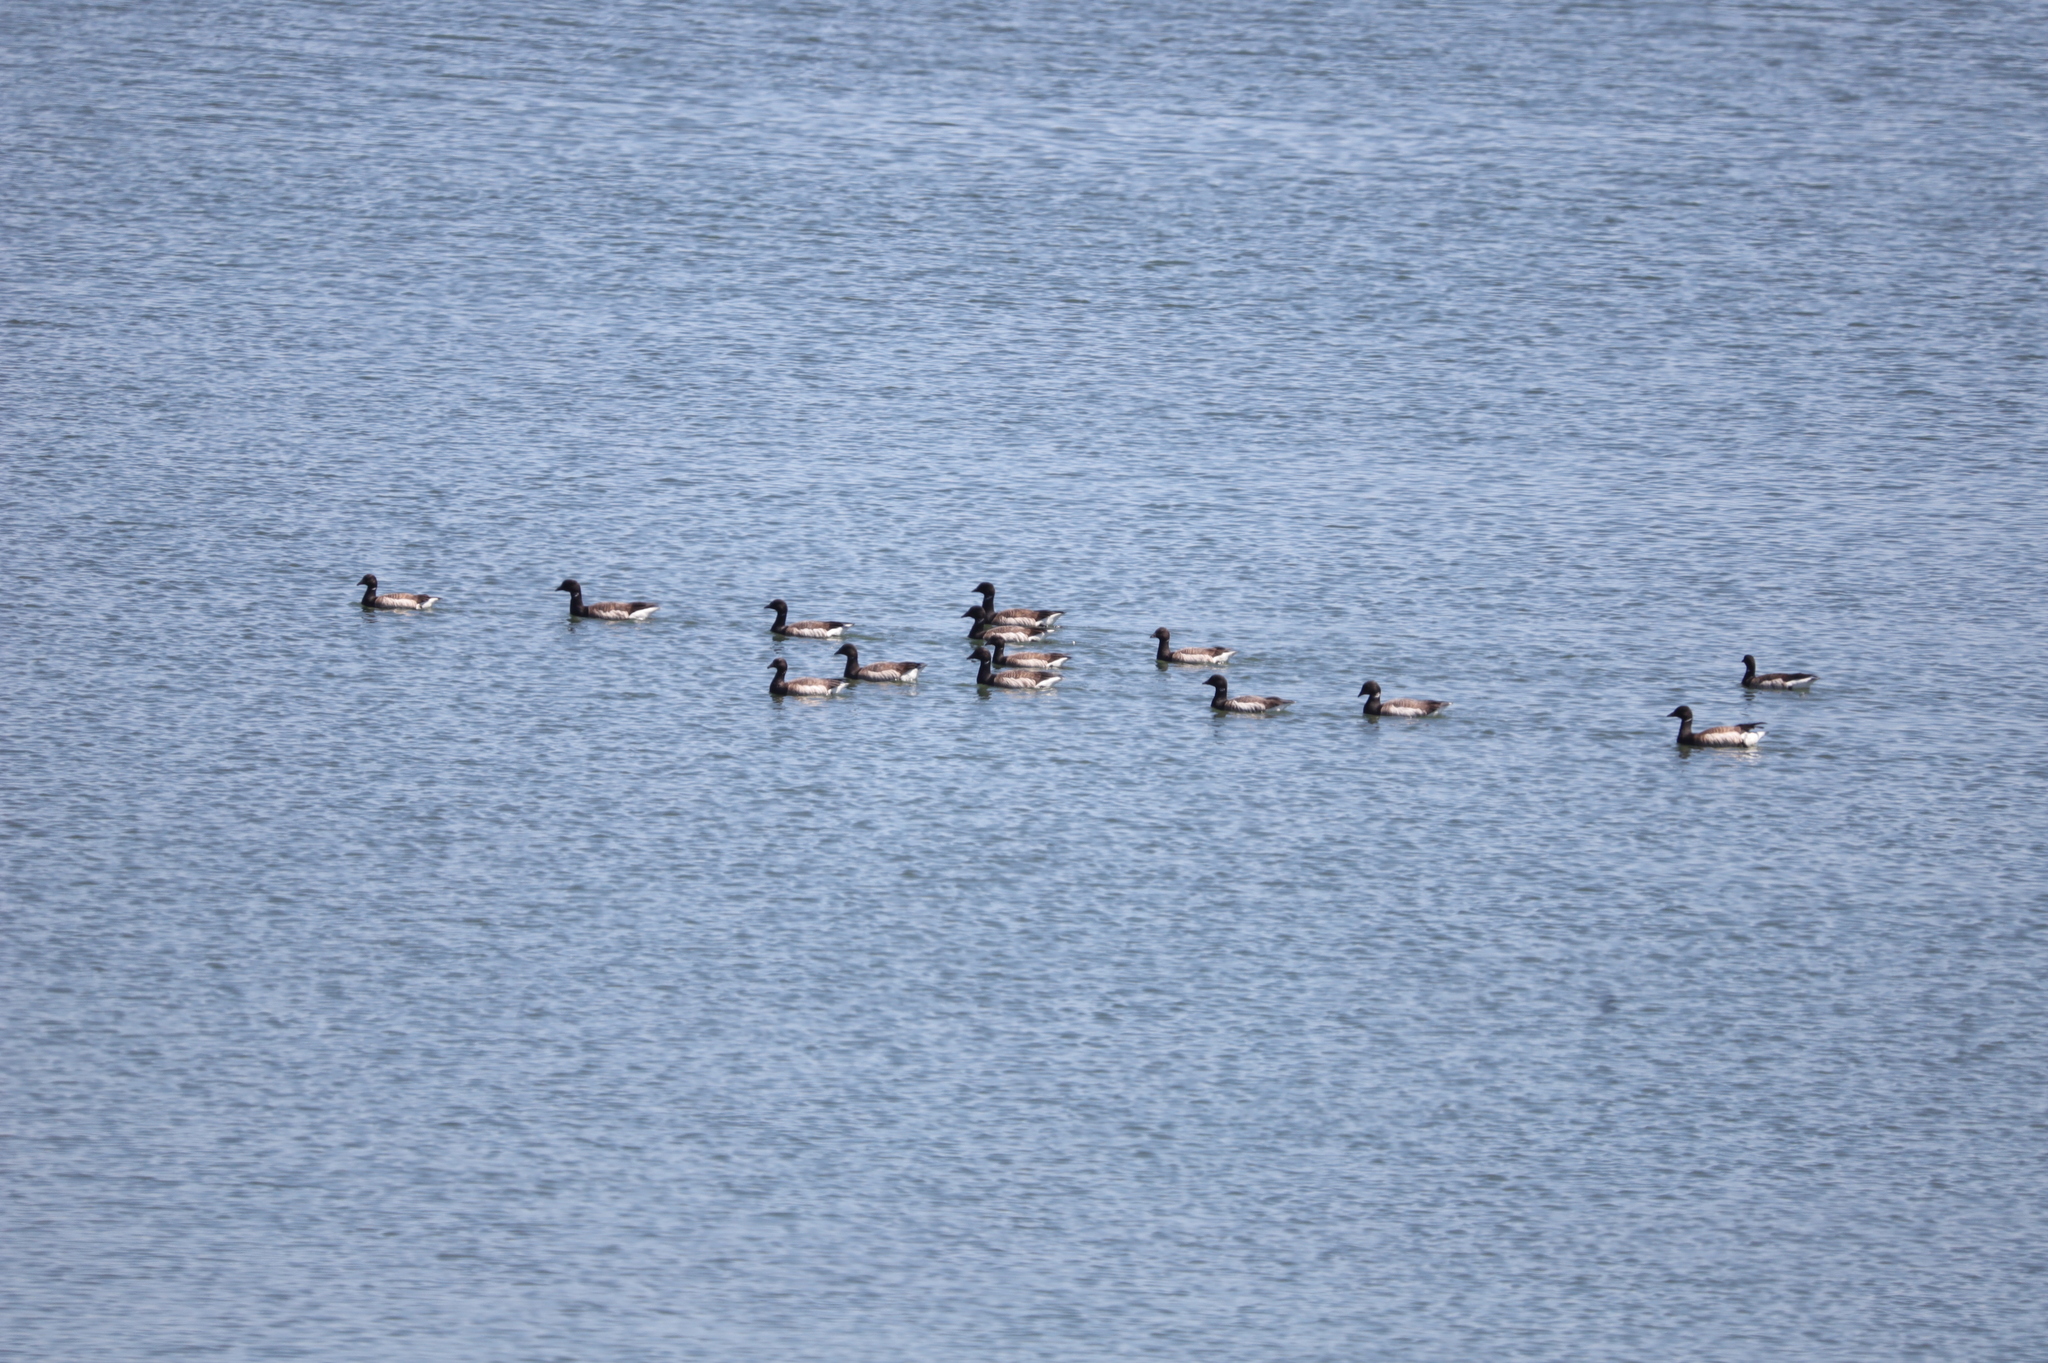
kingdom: Animalia
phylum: Chordata
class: Aves
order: Anseriformes
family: Anatidae
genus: Branta
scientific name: Branta bernicla
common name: Brant goose
